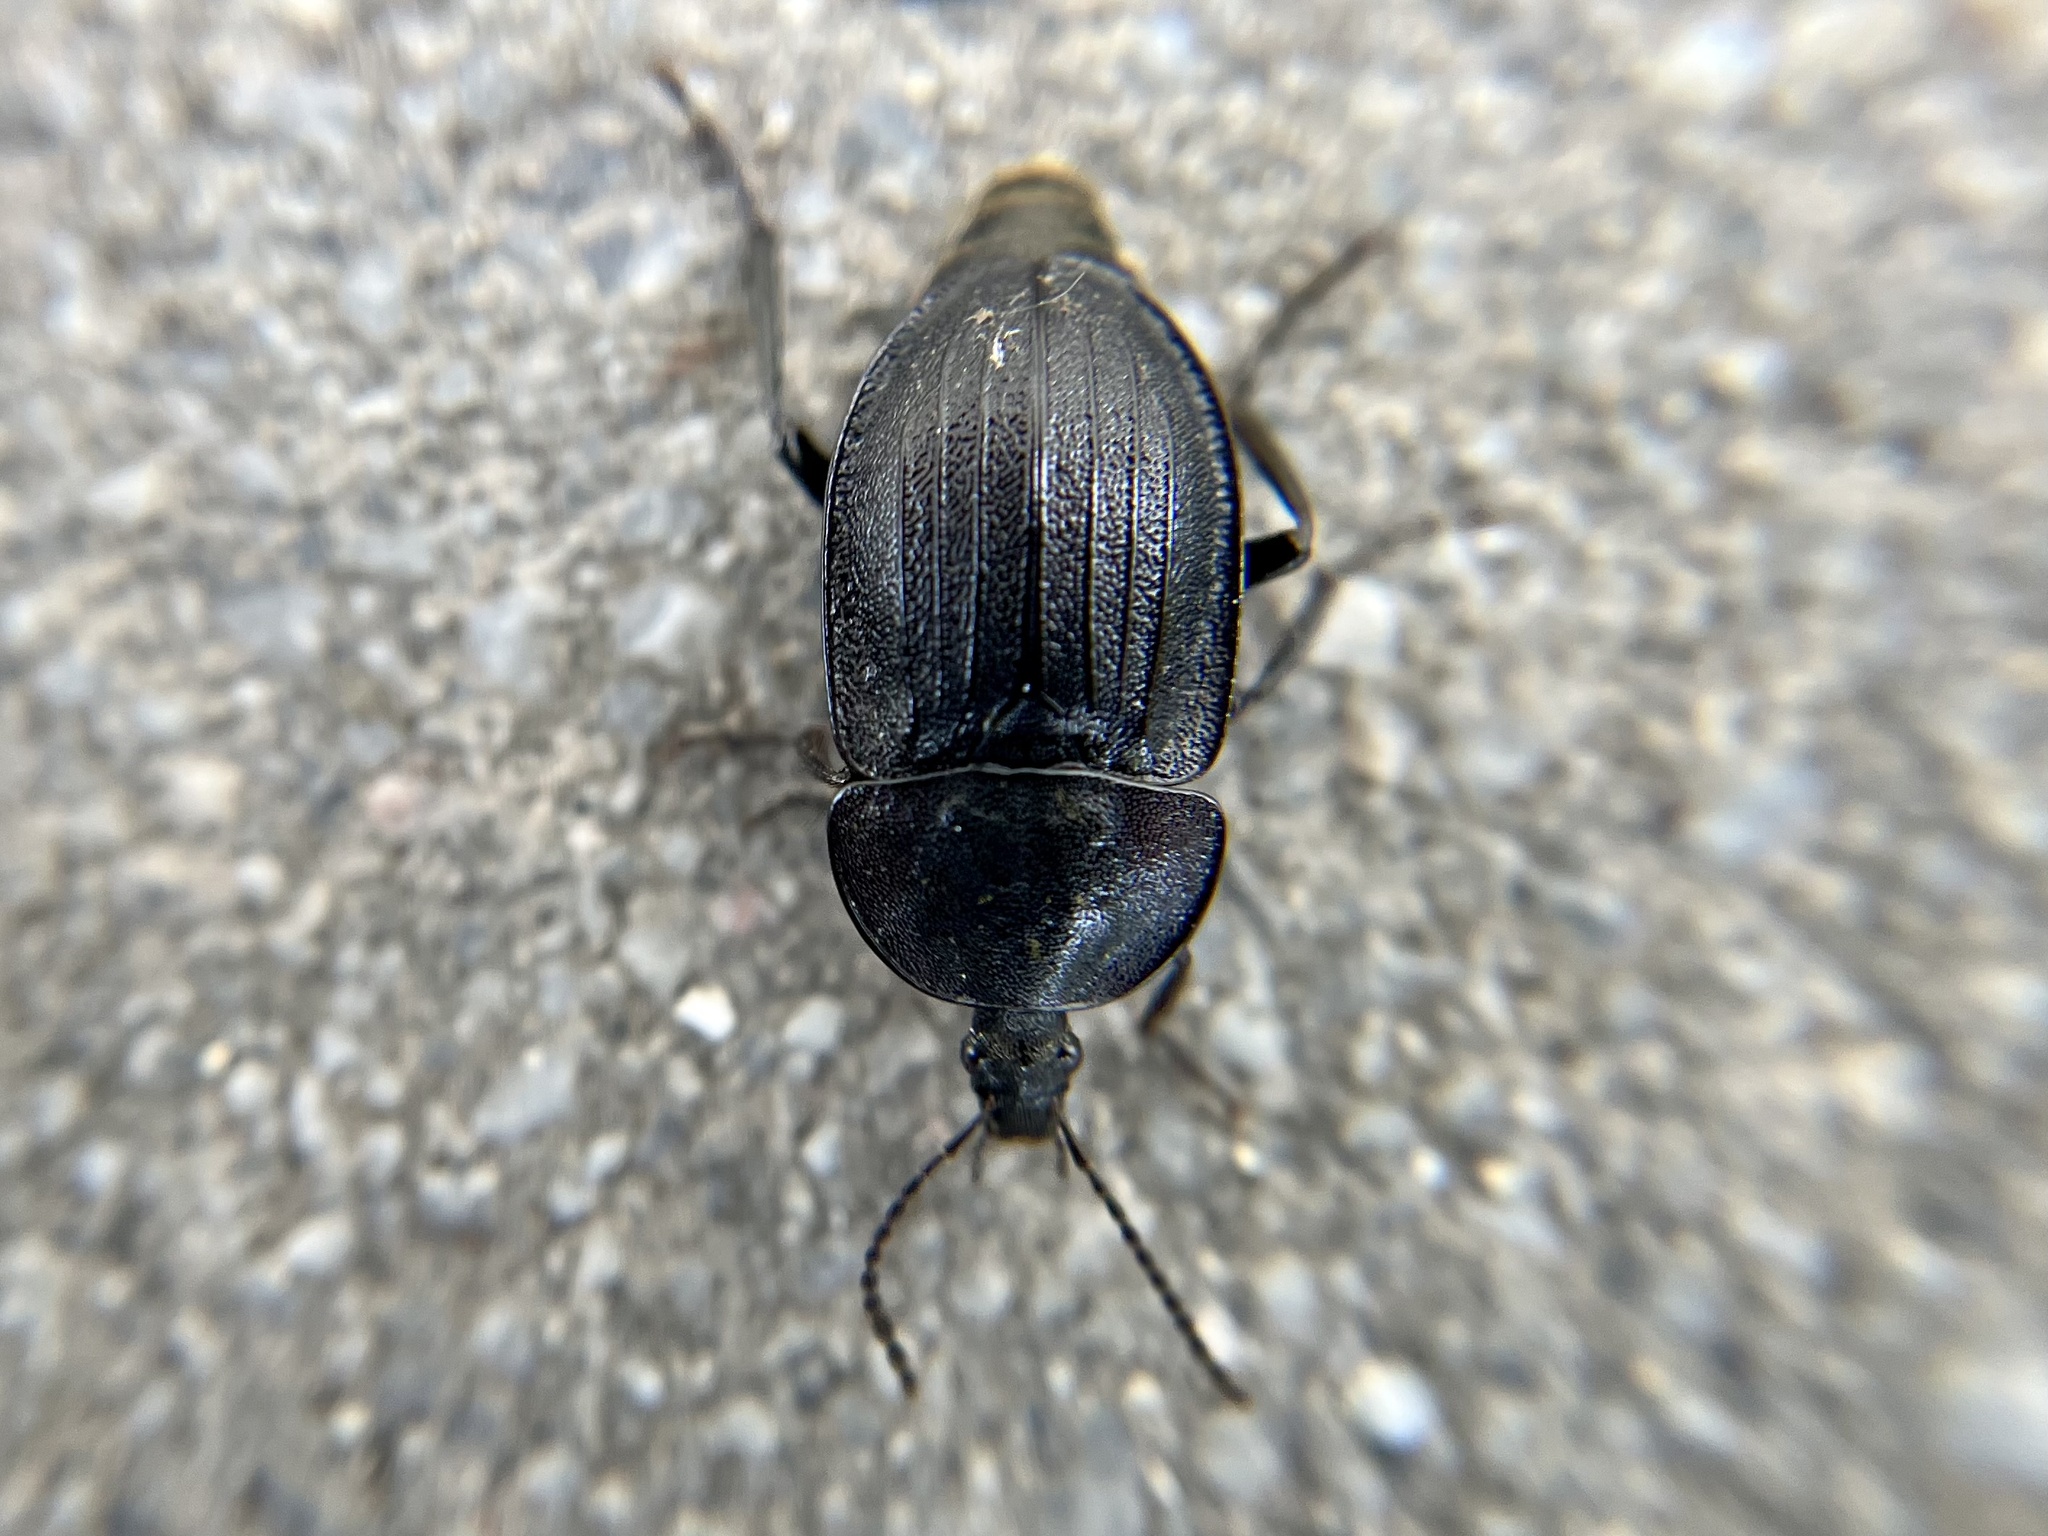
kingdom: Animalia
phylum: Arthropoda
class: Insecta
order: Coleoptera
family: Staphylinidae
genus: Silpha
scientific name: Silpha atrata
